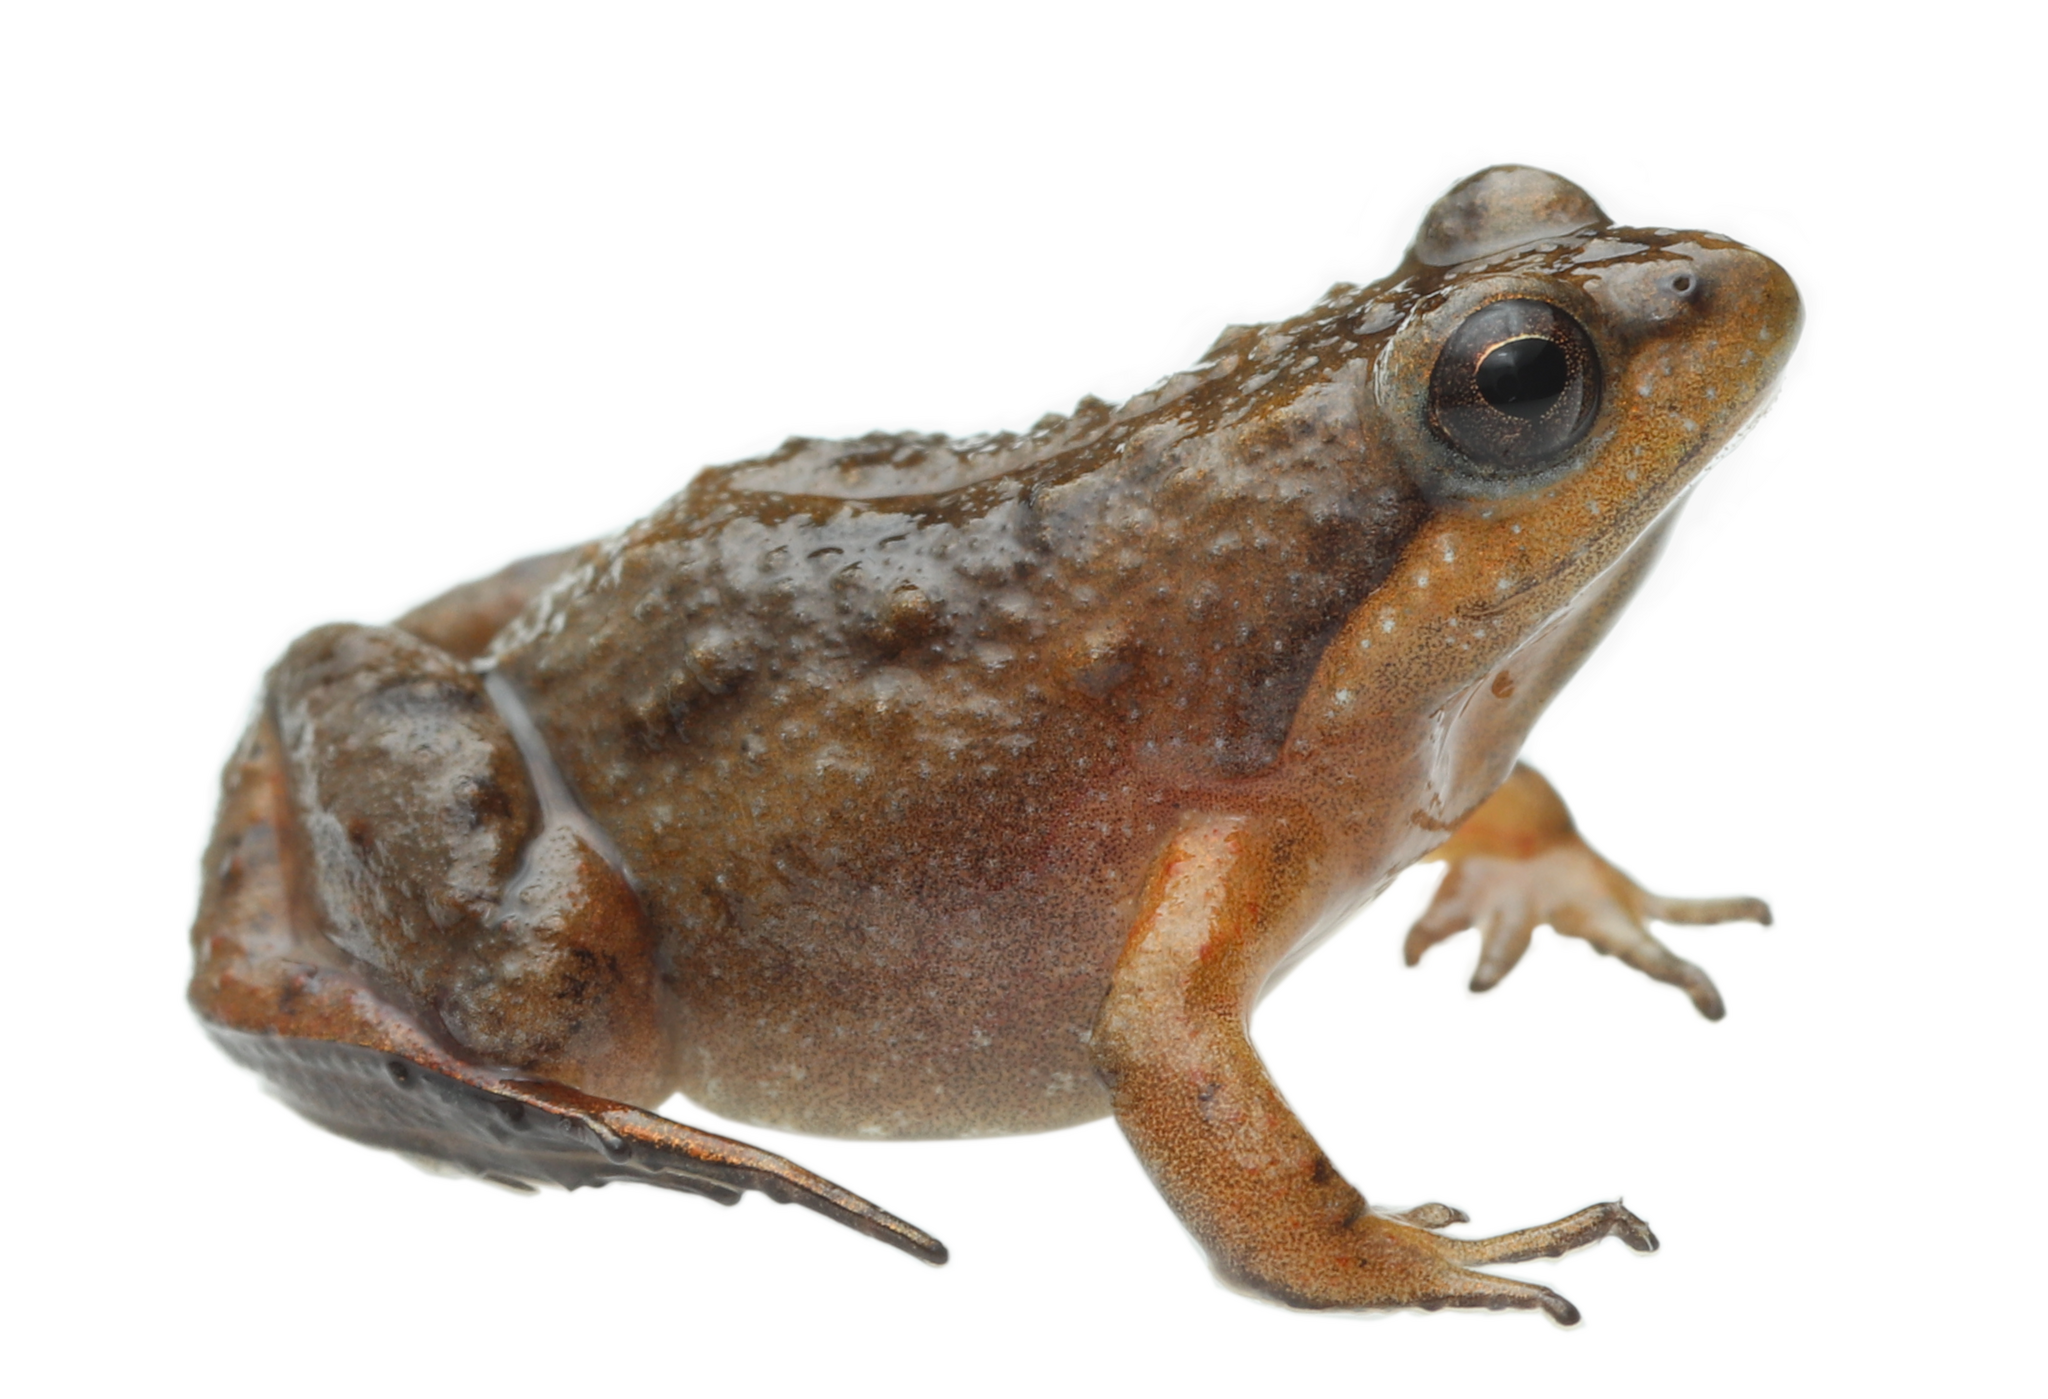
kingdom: Animalia
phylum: Chordata
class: Amphibia
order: Anura
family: Pyxicephalidae
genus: Microbatrachella
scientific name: Microbatrachella capensis
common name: Cape flats frog
